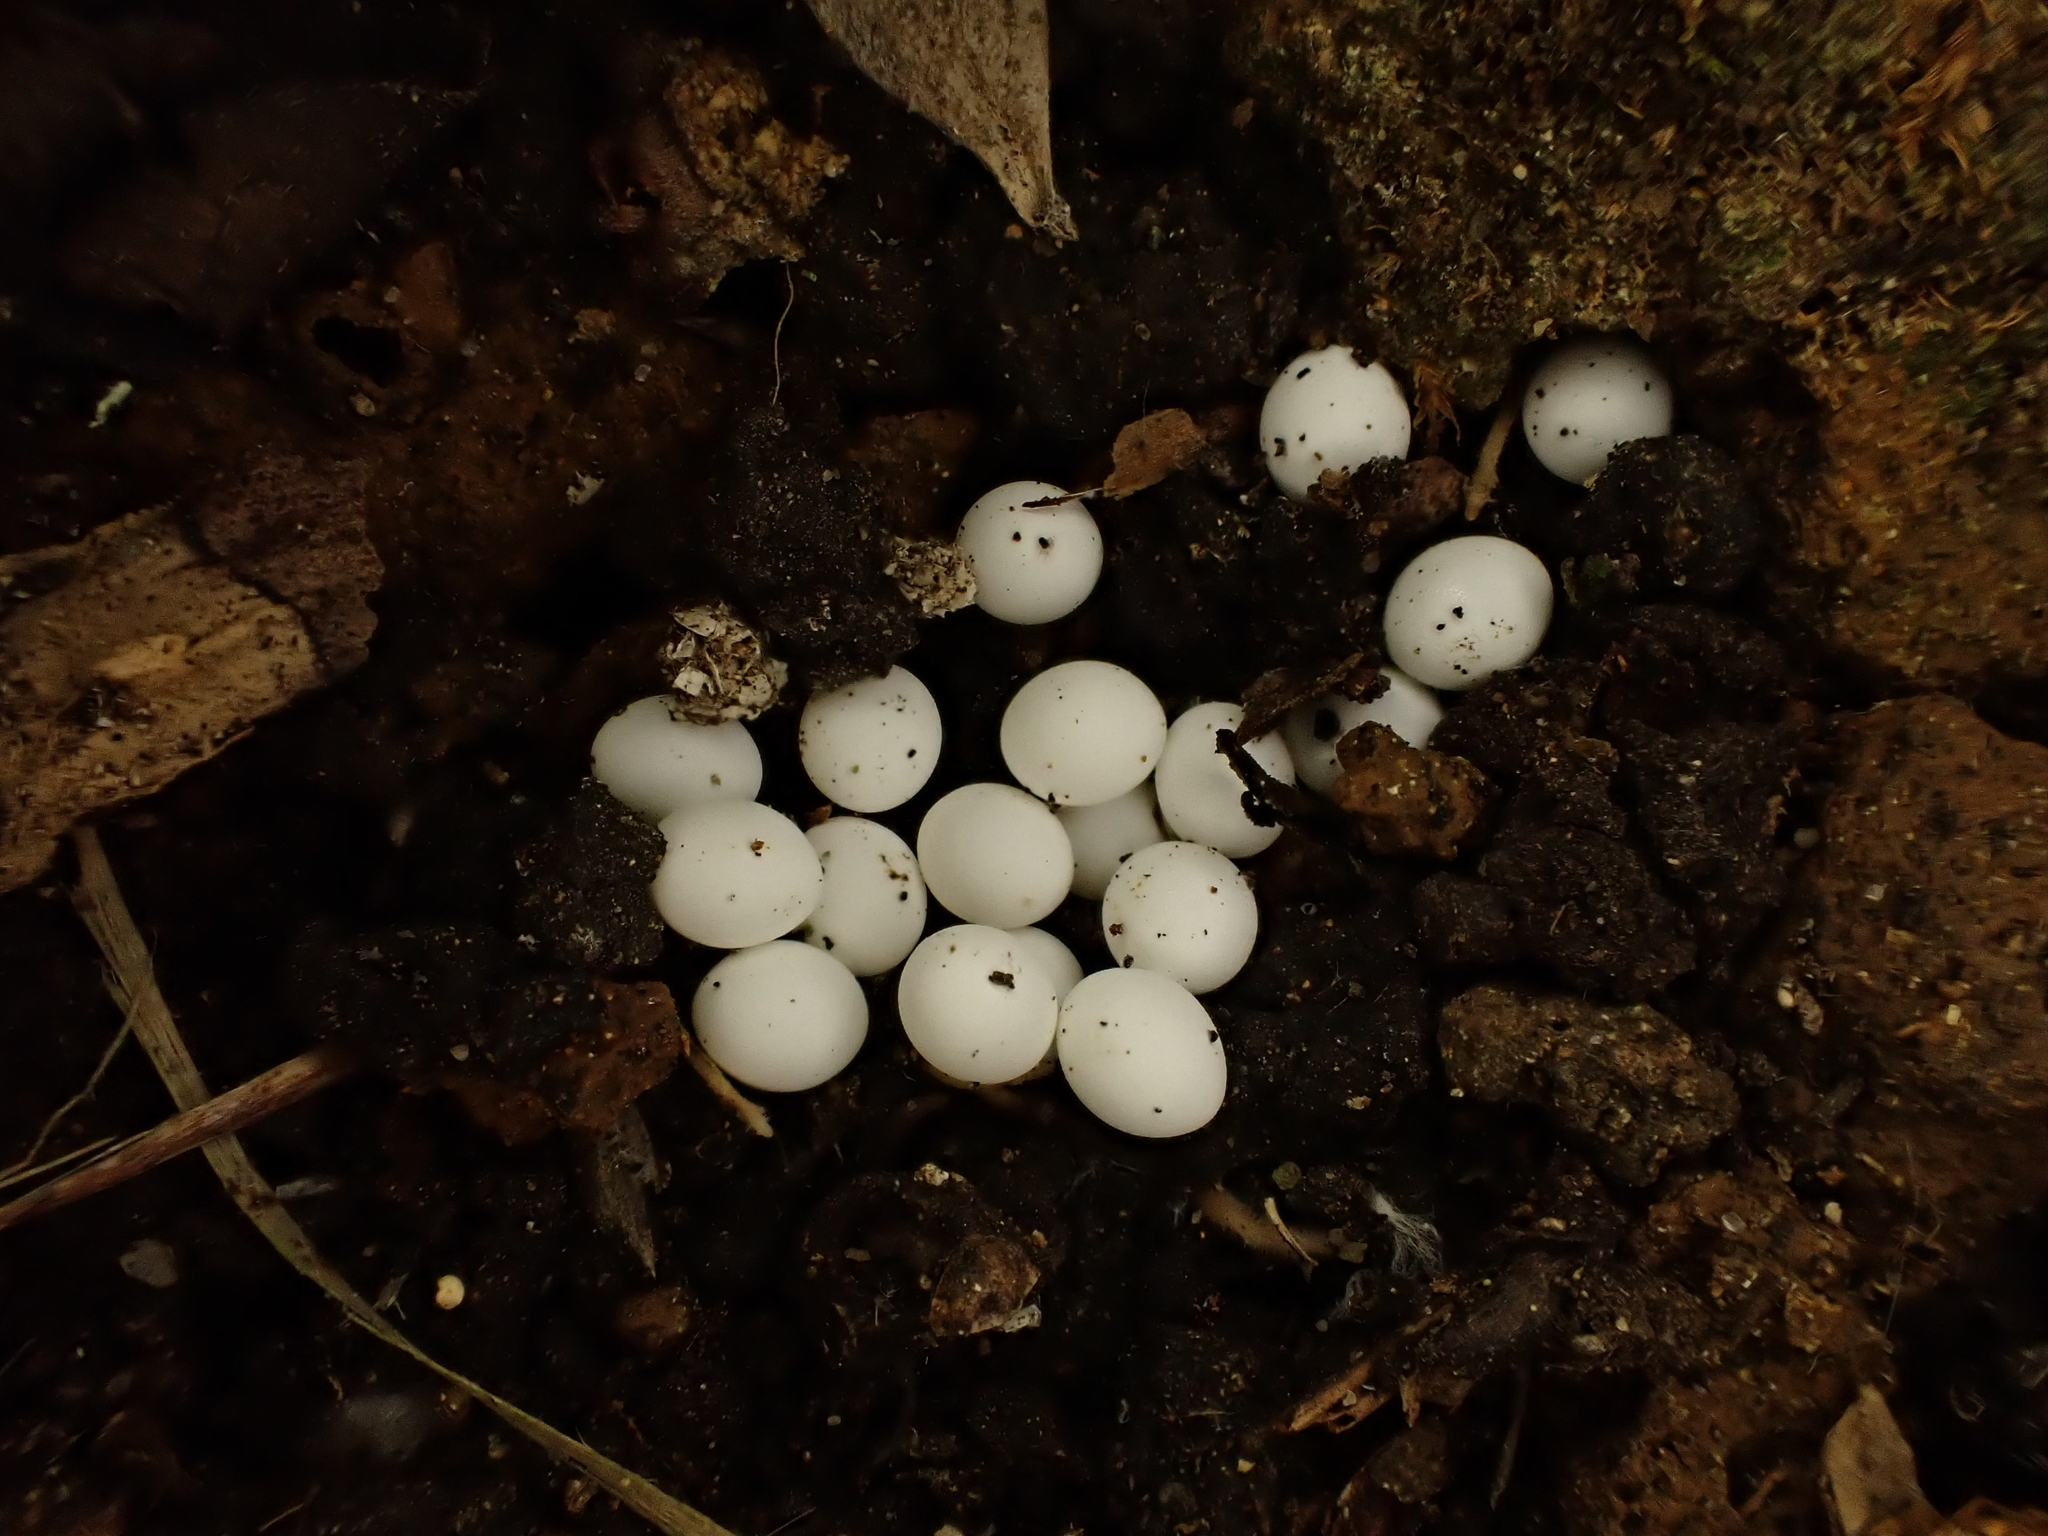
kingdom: Animalia
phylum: Mollusca
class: Gastropoda
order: Stylommatophora
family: Rhytididae
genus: Rhytida
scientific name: Rhytida greenwoodi
